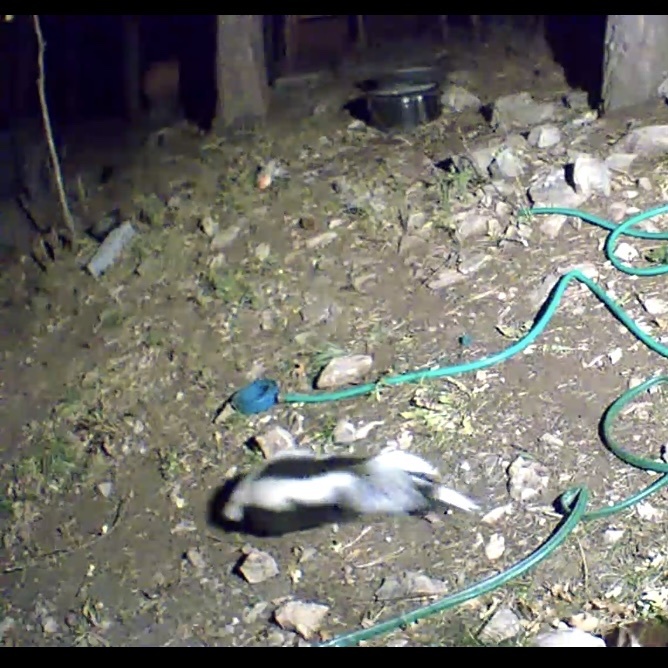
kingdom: Animalia
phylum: Chordata
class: Mammalia
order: Carnivora
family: Mephitidae
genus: Mephitis
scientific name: Mephitis mephitis
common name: Striped skunk
